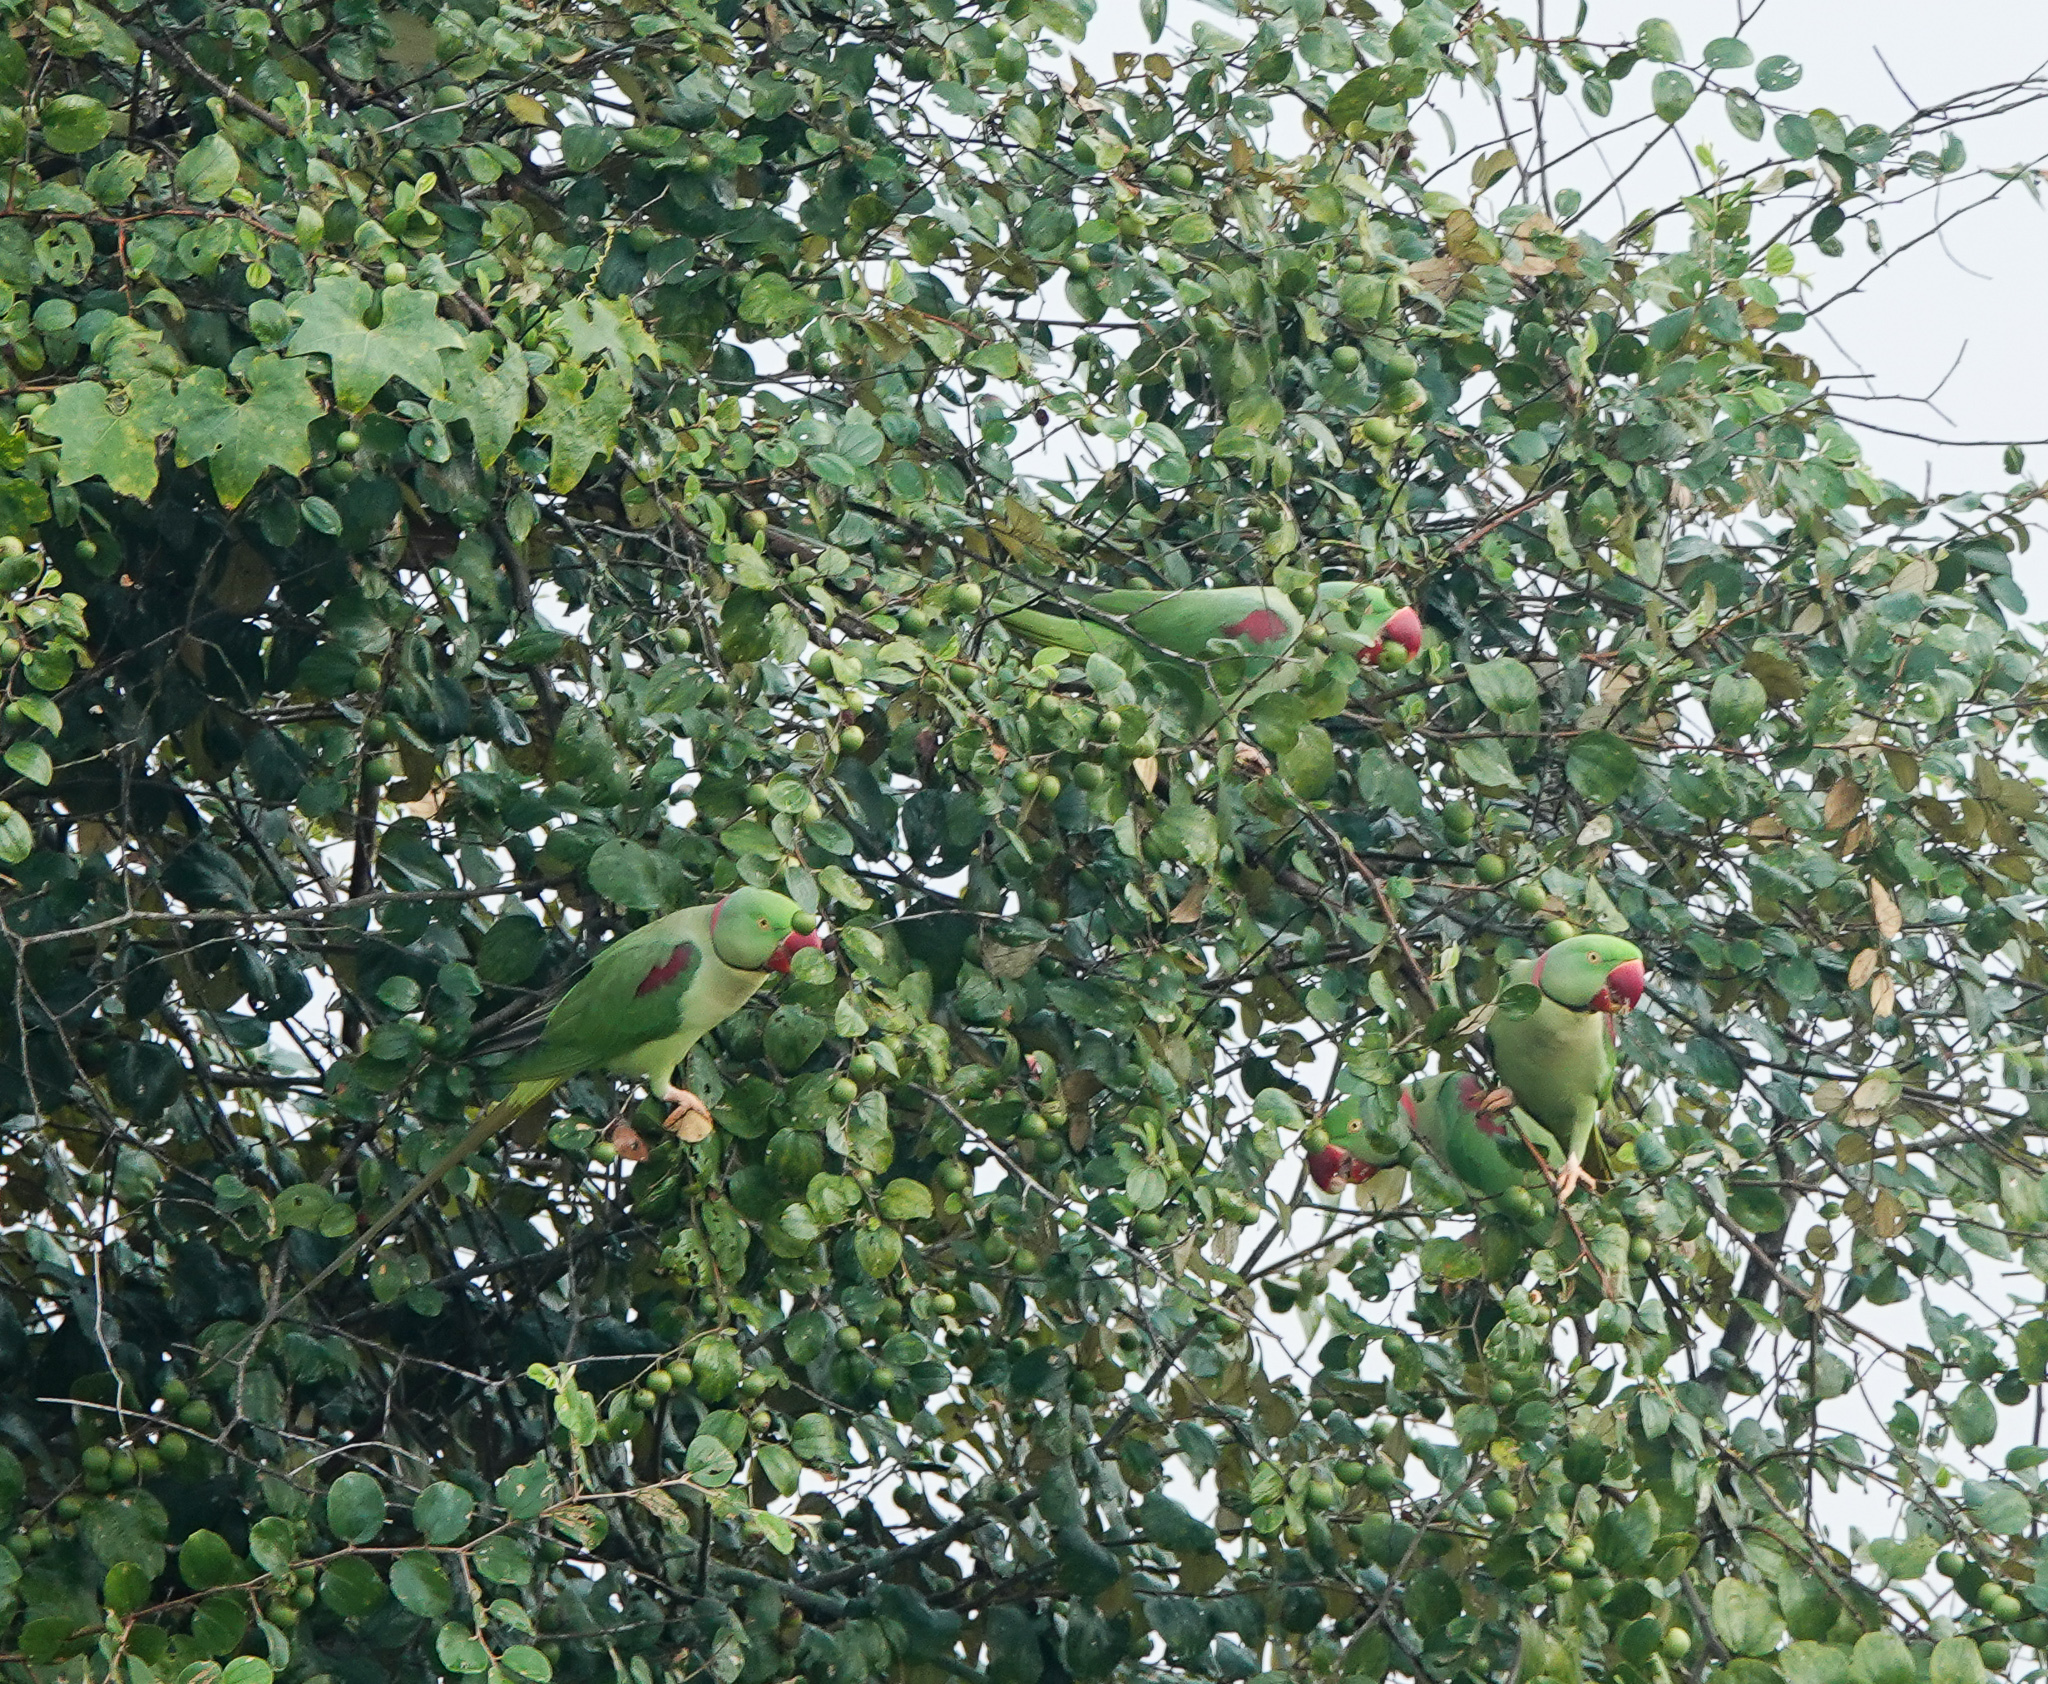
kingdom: Animalia
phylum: Chordata
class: Aves
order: Psittaciformes
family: Psittacidae
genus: Psittacula
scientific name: Psittacula eupatria
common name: Alexandrine parakeet
